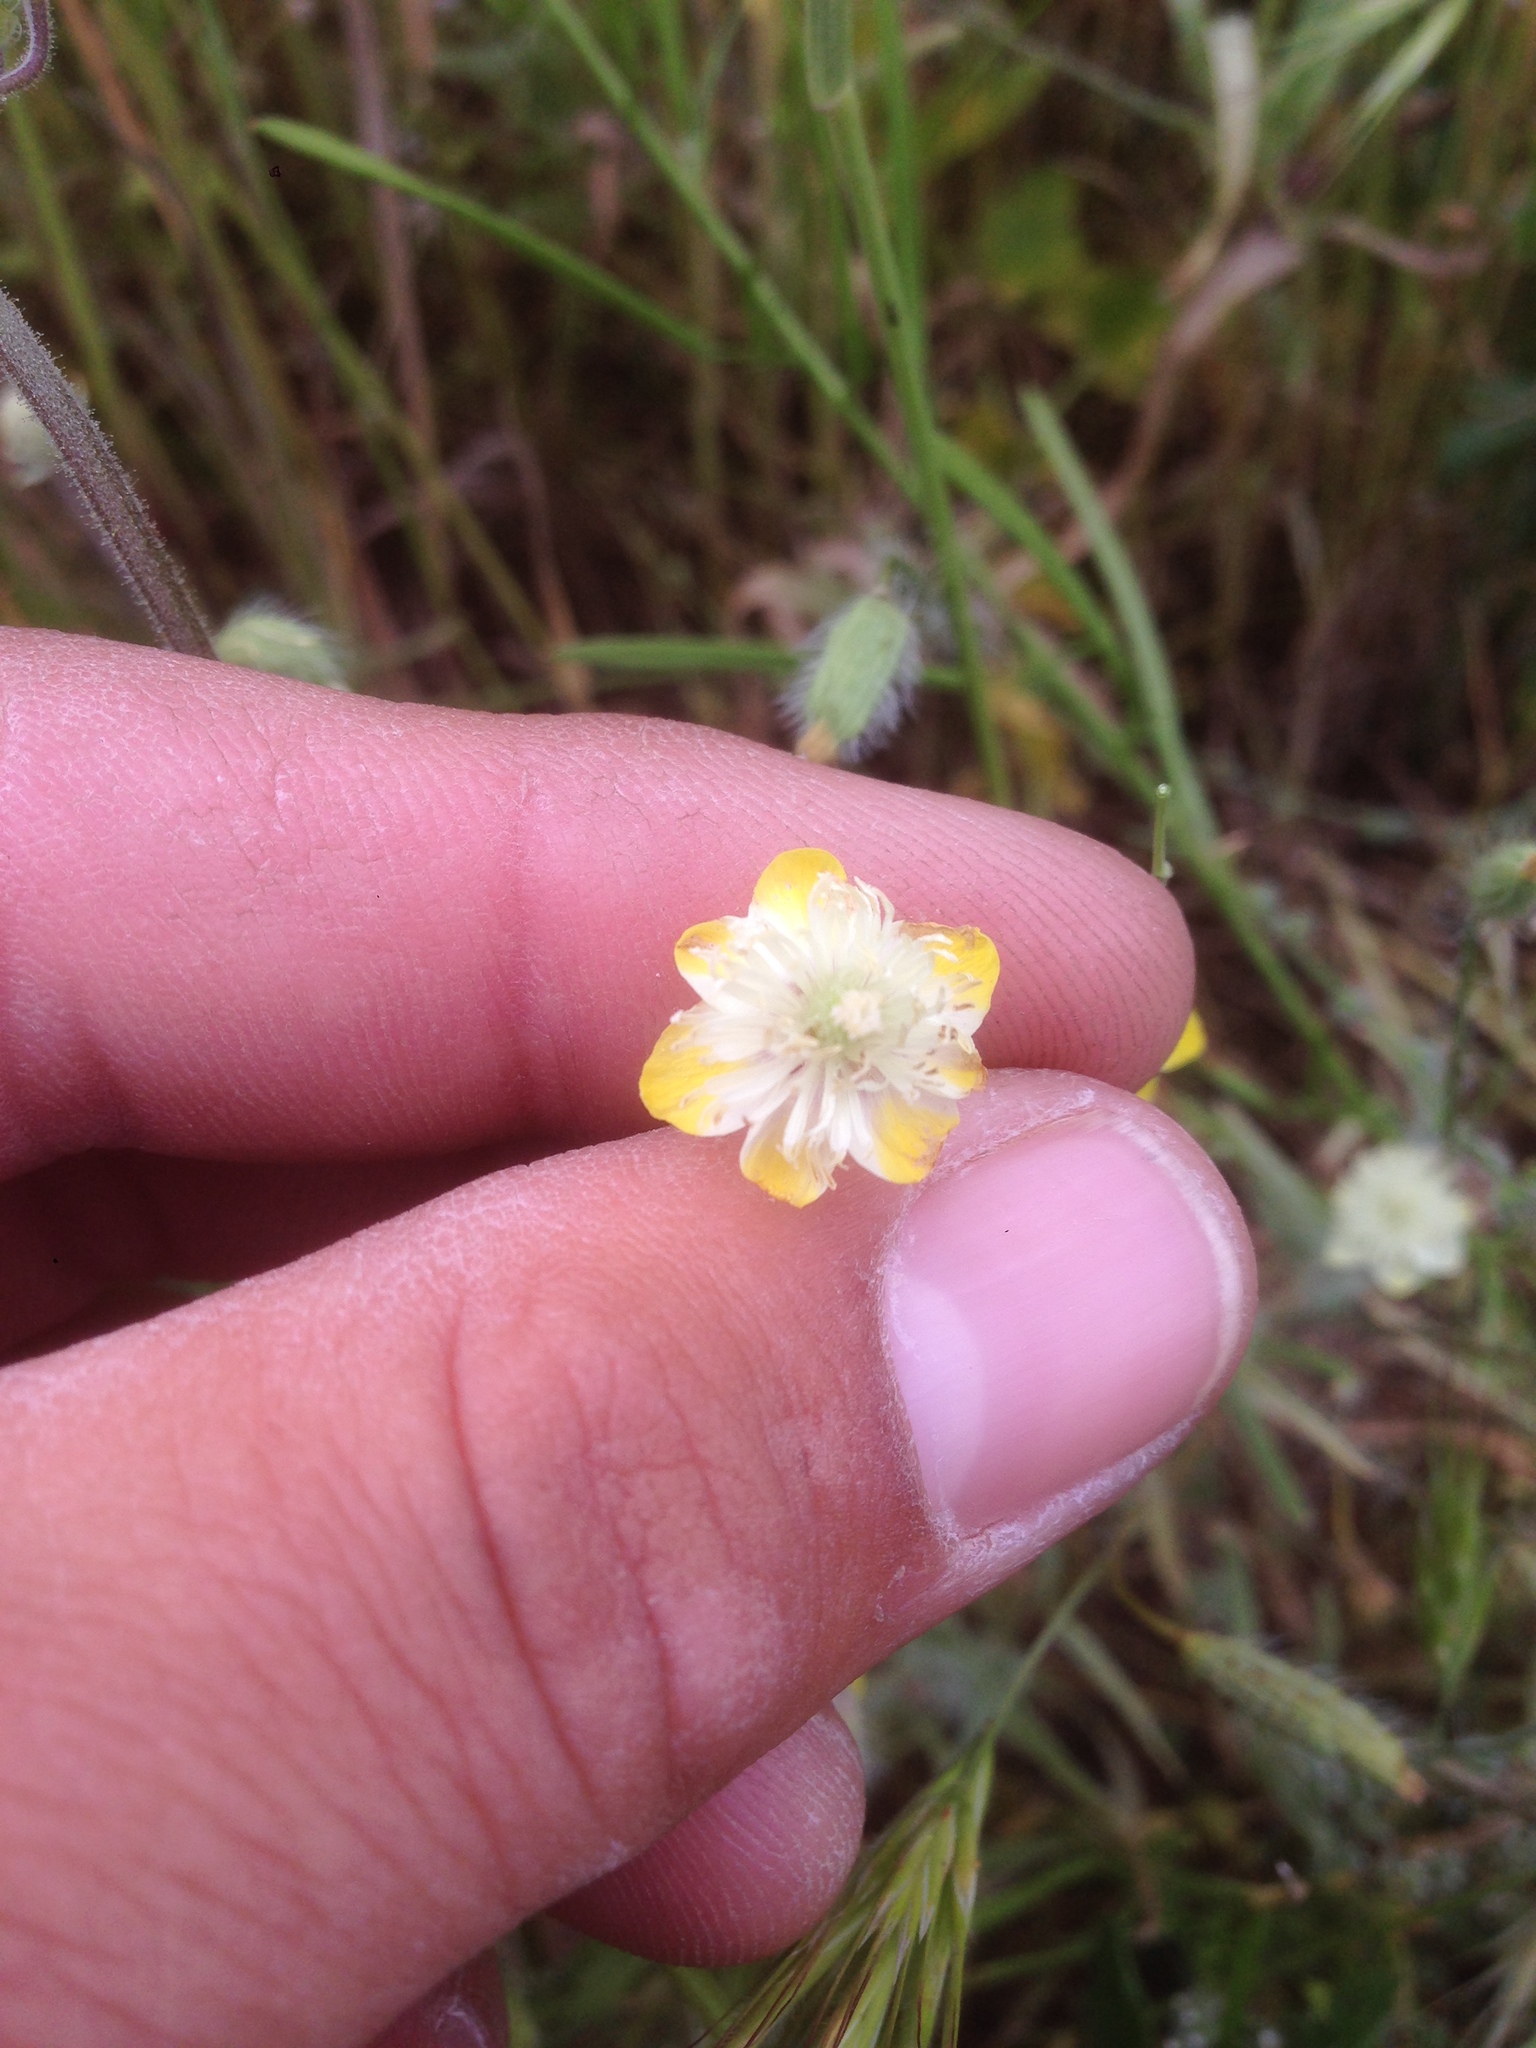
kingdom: Plantae
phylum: Tracheophyta
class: Magnoliopsida
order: Ranunculales
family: Papaveraceae
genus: Platystemon
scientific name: Platystemon californicus
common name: Cream-cups
